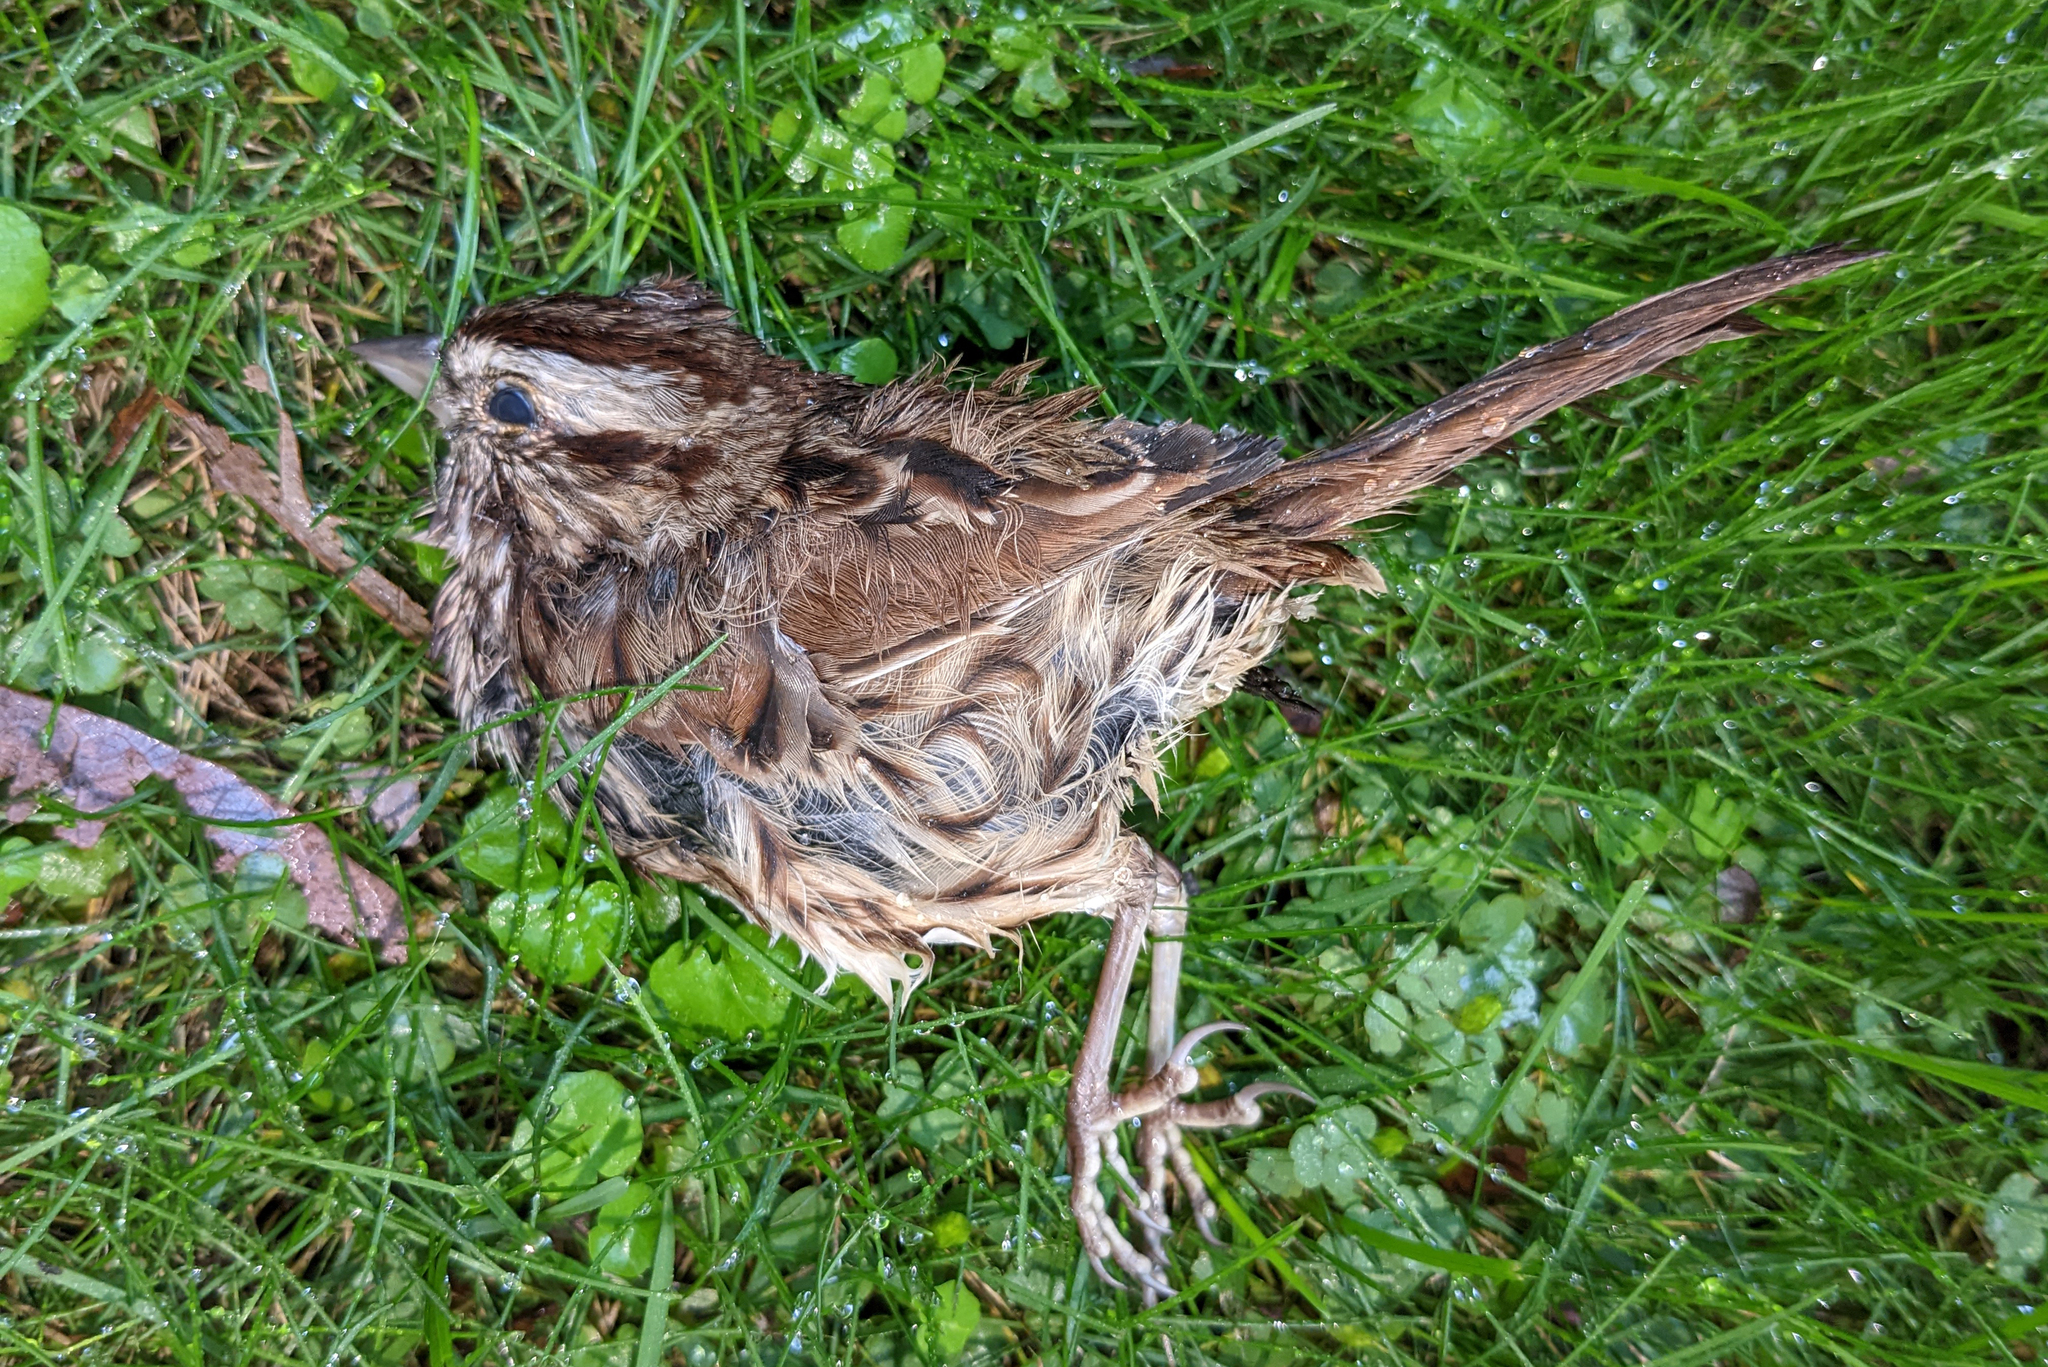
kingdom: Animalia
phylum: Chordata
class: Aves
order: Passeriformes
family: Passerellidae
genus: Melospiza
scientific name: Melospiza melodia
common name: Song sparrow
